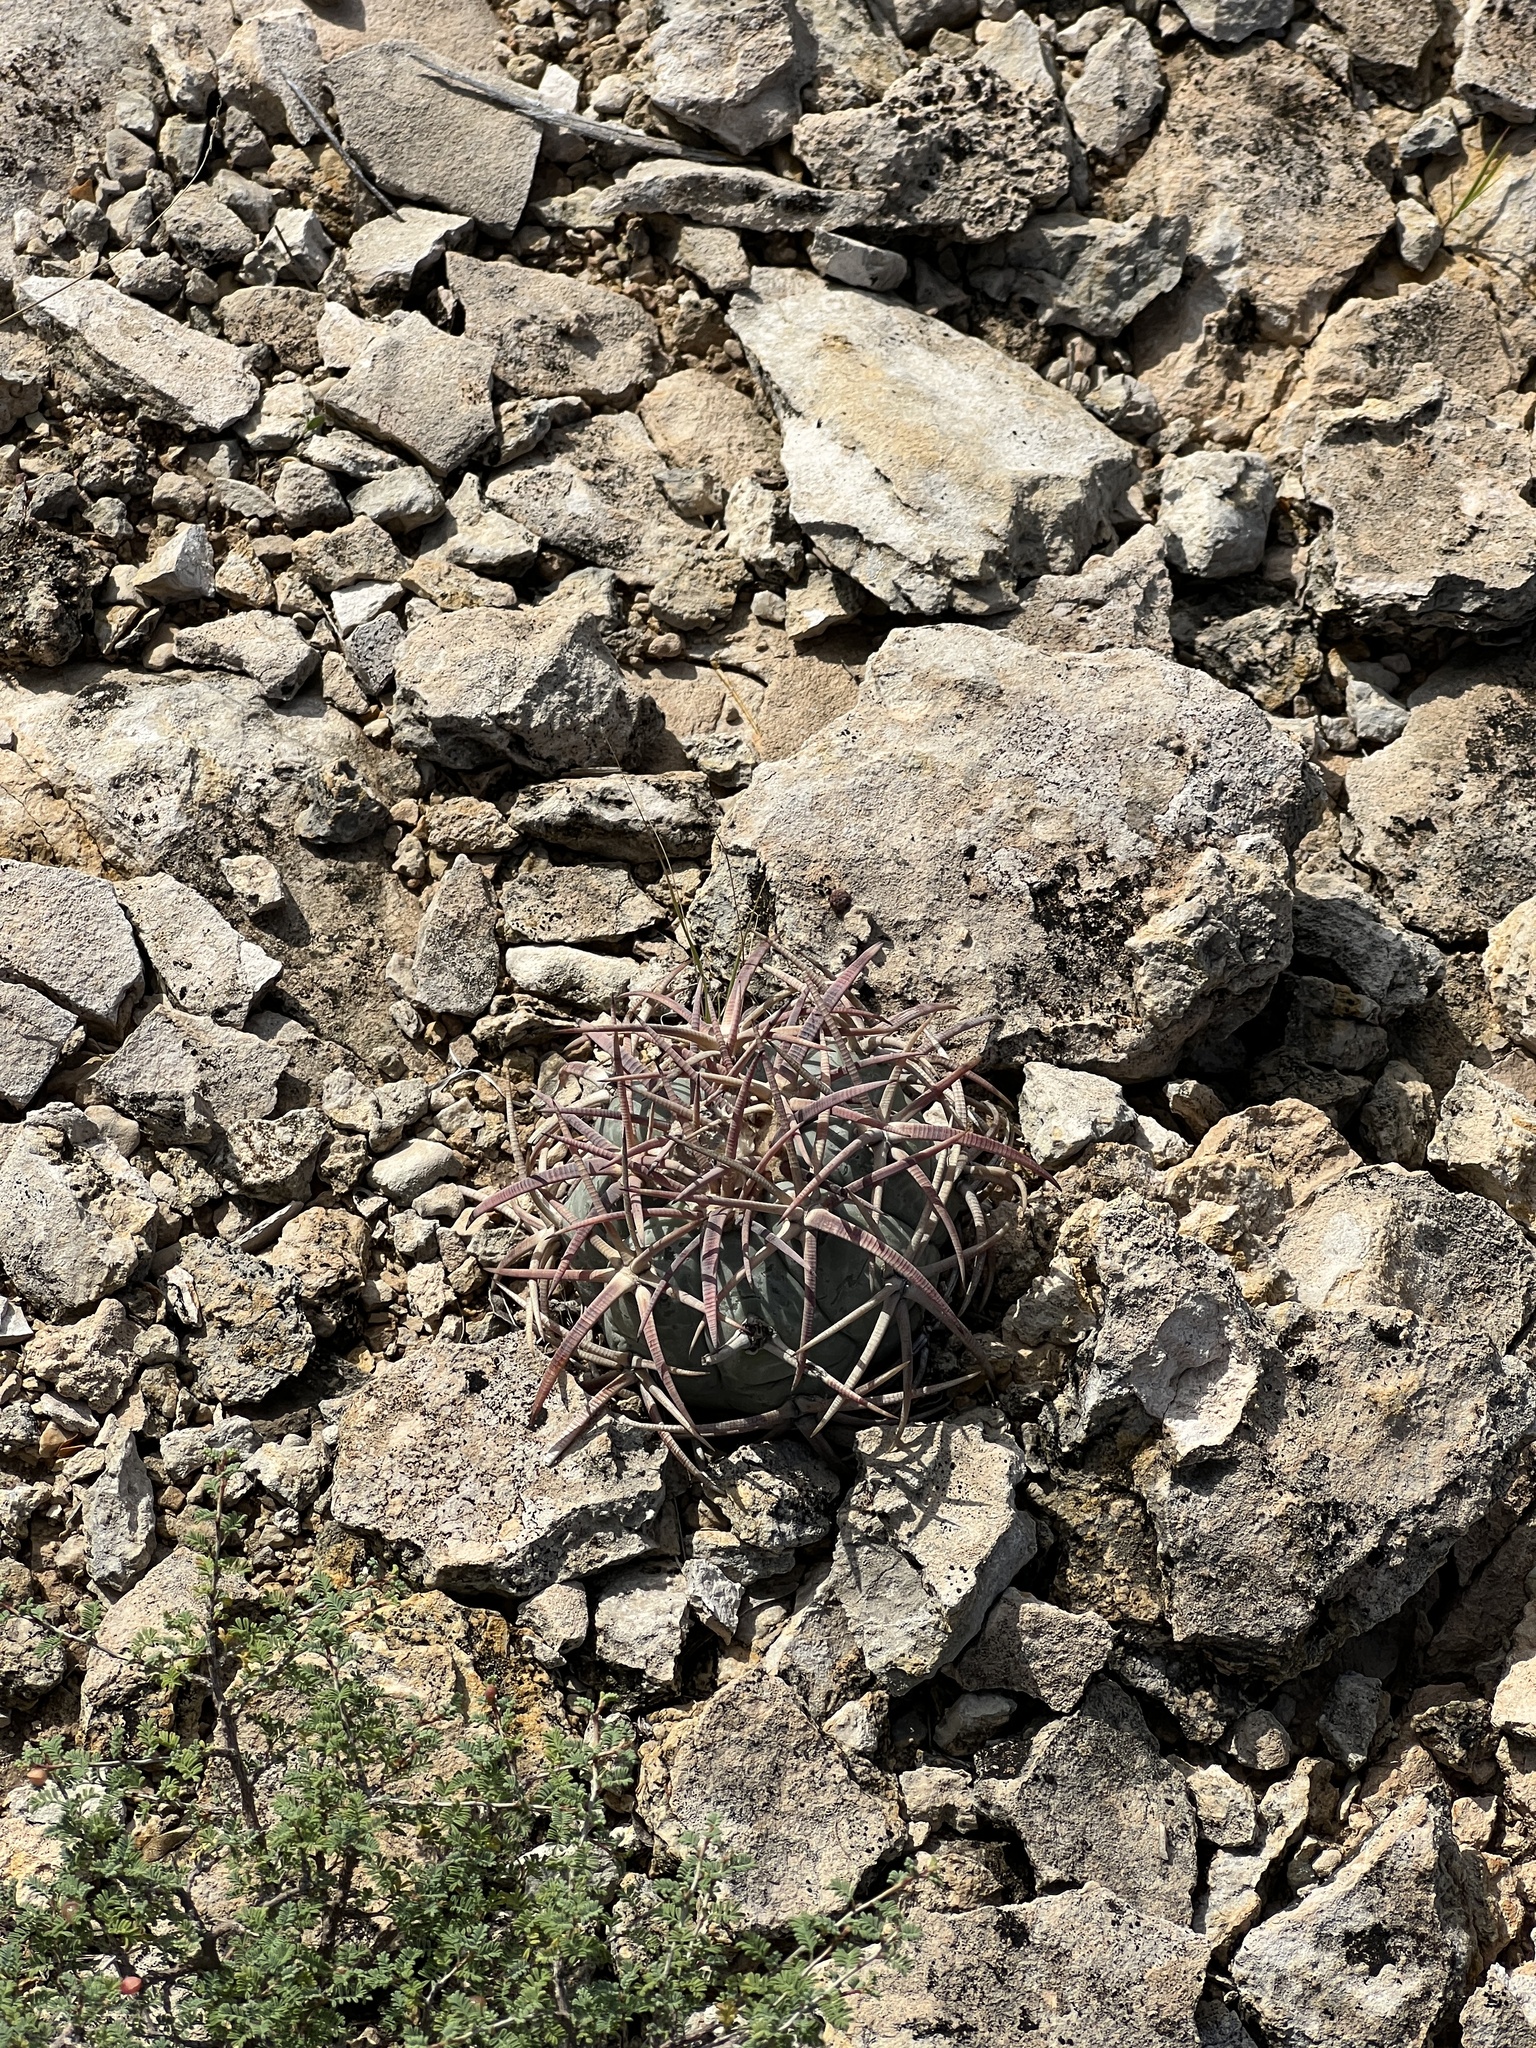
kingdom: Plantae
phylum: Tracheophyta
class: Magnoliopsida
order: Caryophyllales
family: Cactaceae
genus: Echinocactus
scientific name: Echinocactus horizonthalonius
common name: Devilshead
